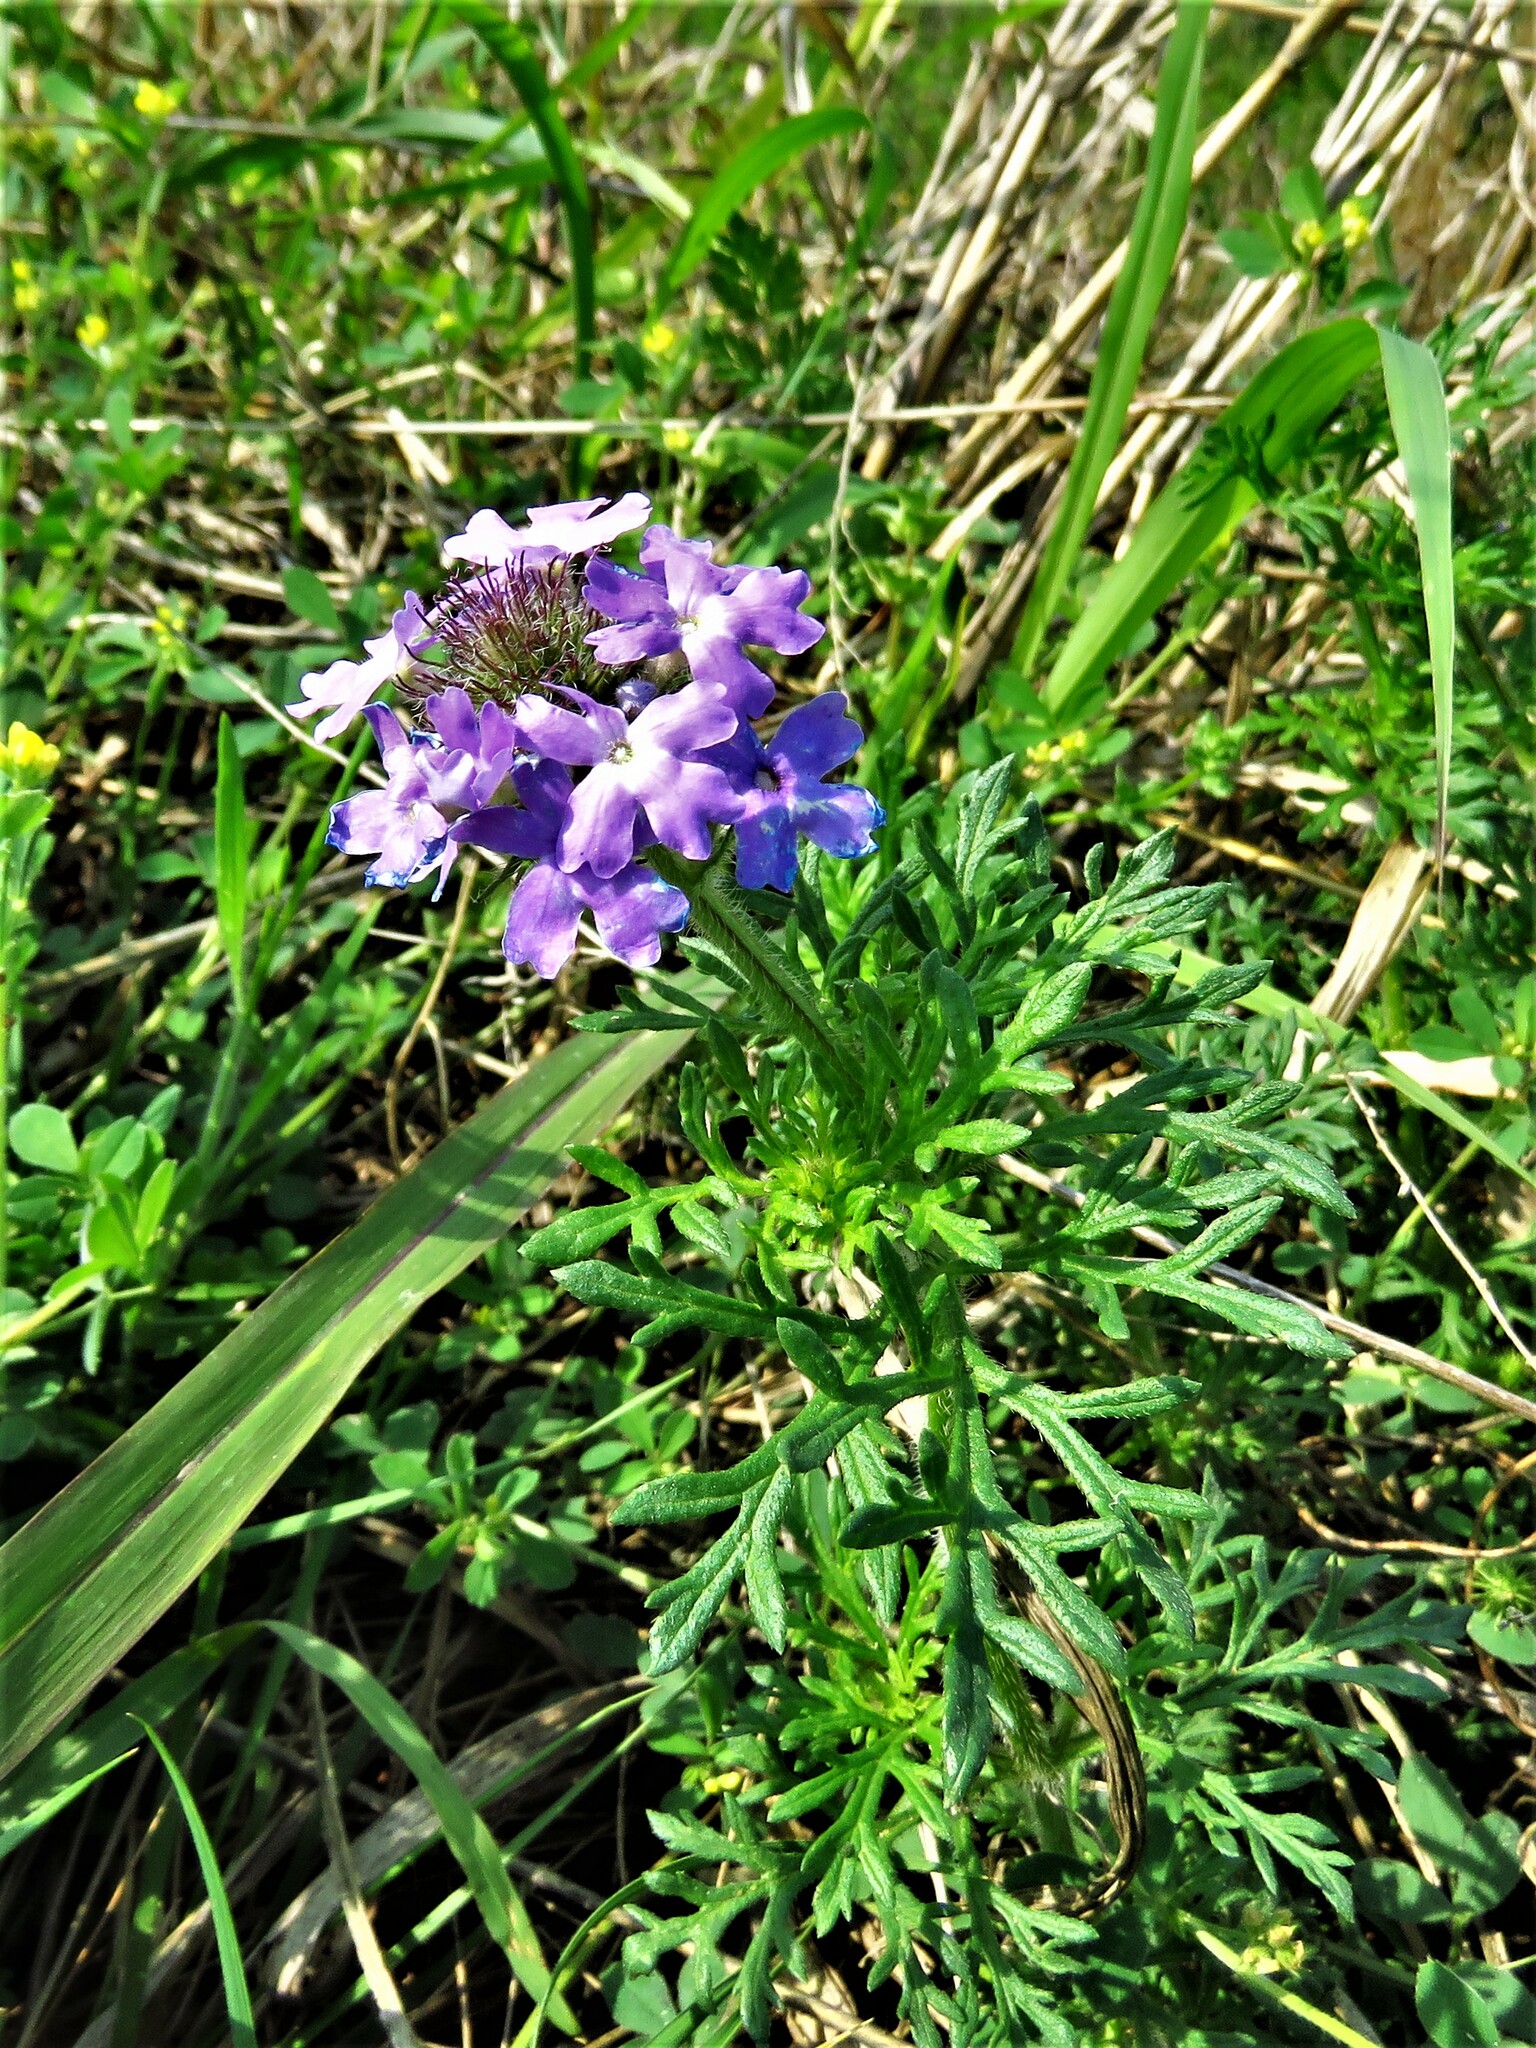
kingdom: Plantae
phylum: Tracheophyta
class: Magnoliopsida
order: Lamiales
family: Verbenaceae
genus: Verbena
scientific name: Verbena bipinnatifida
